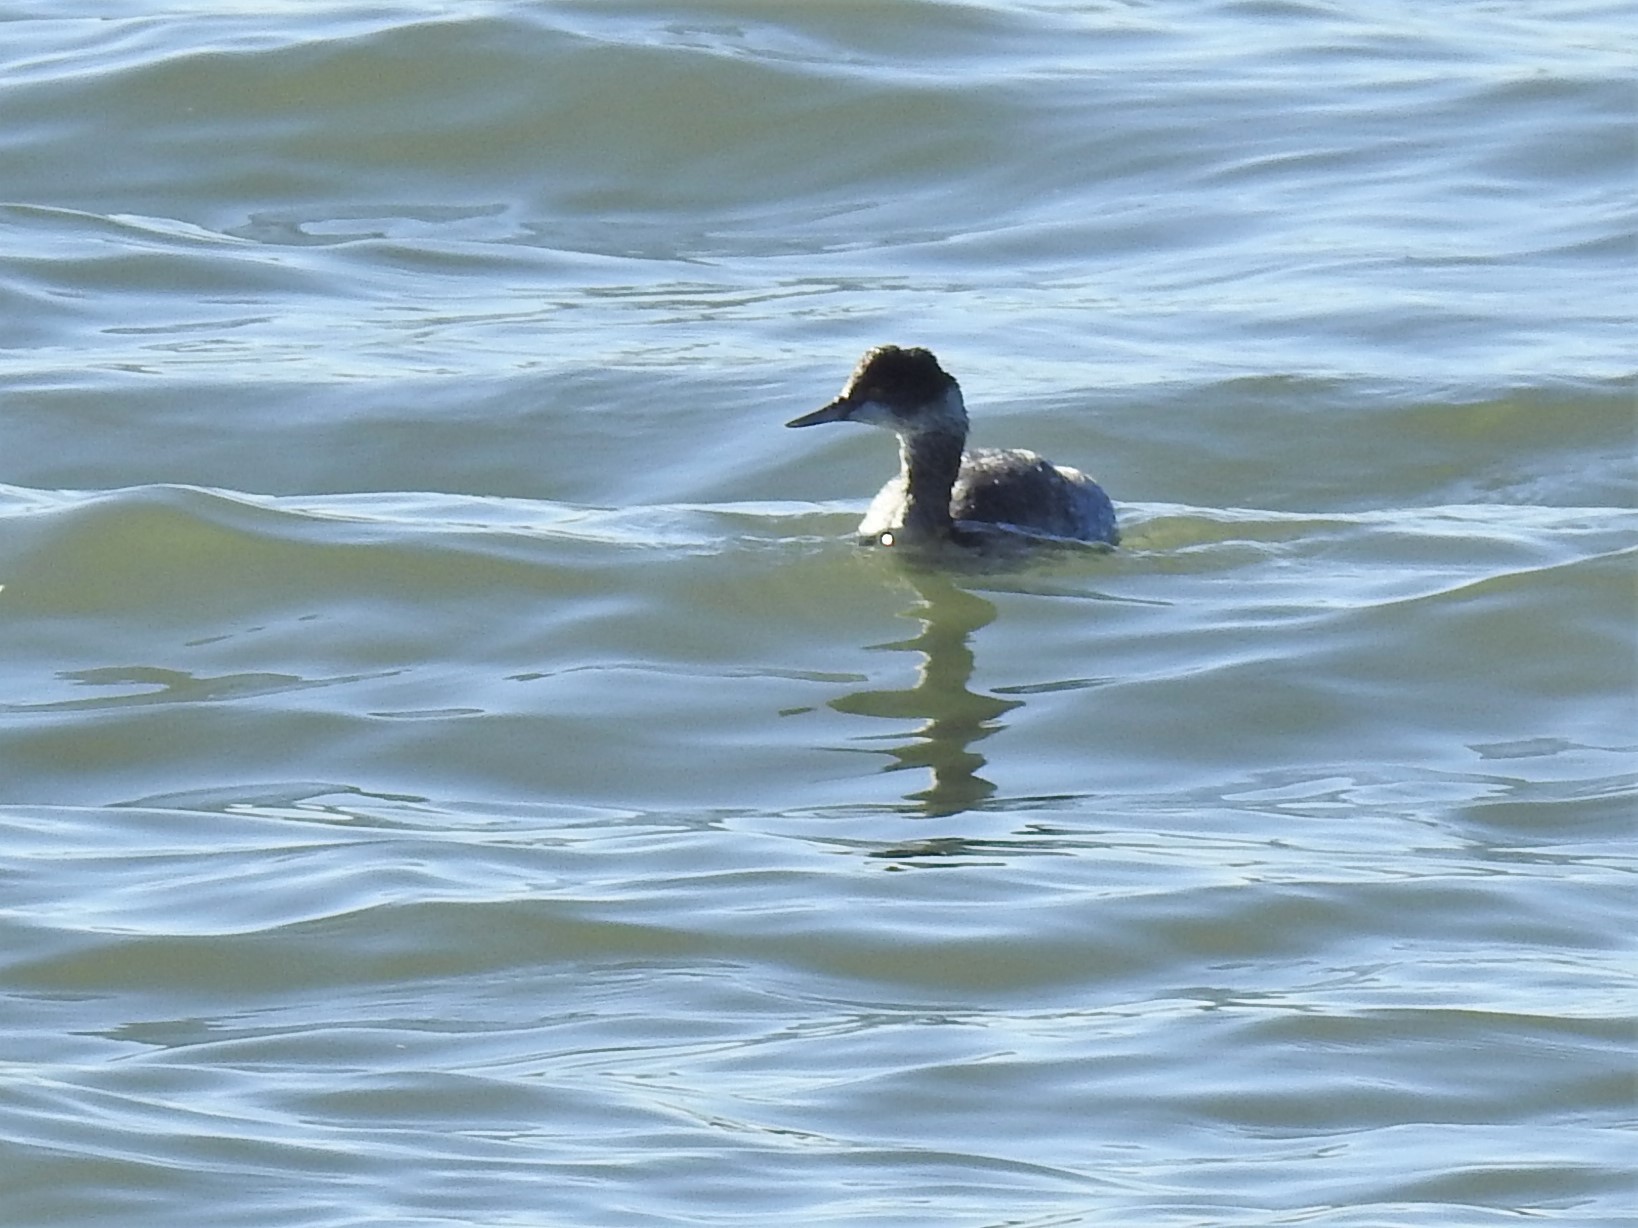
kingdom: Animalia
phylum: Chordata
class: Aves
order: Podicipediformes
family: Podicipedidae
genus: Podiceps
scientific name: Podiceps nigricollis
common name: Black-necked grebe
